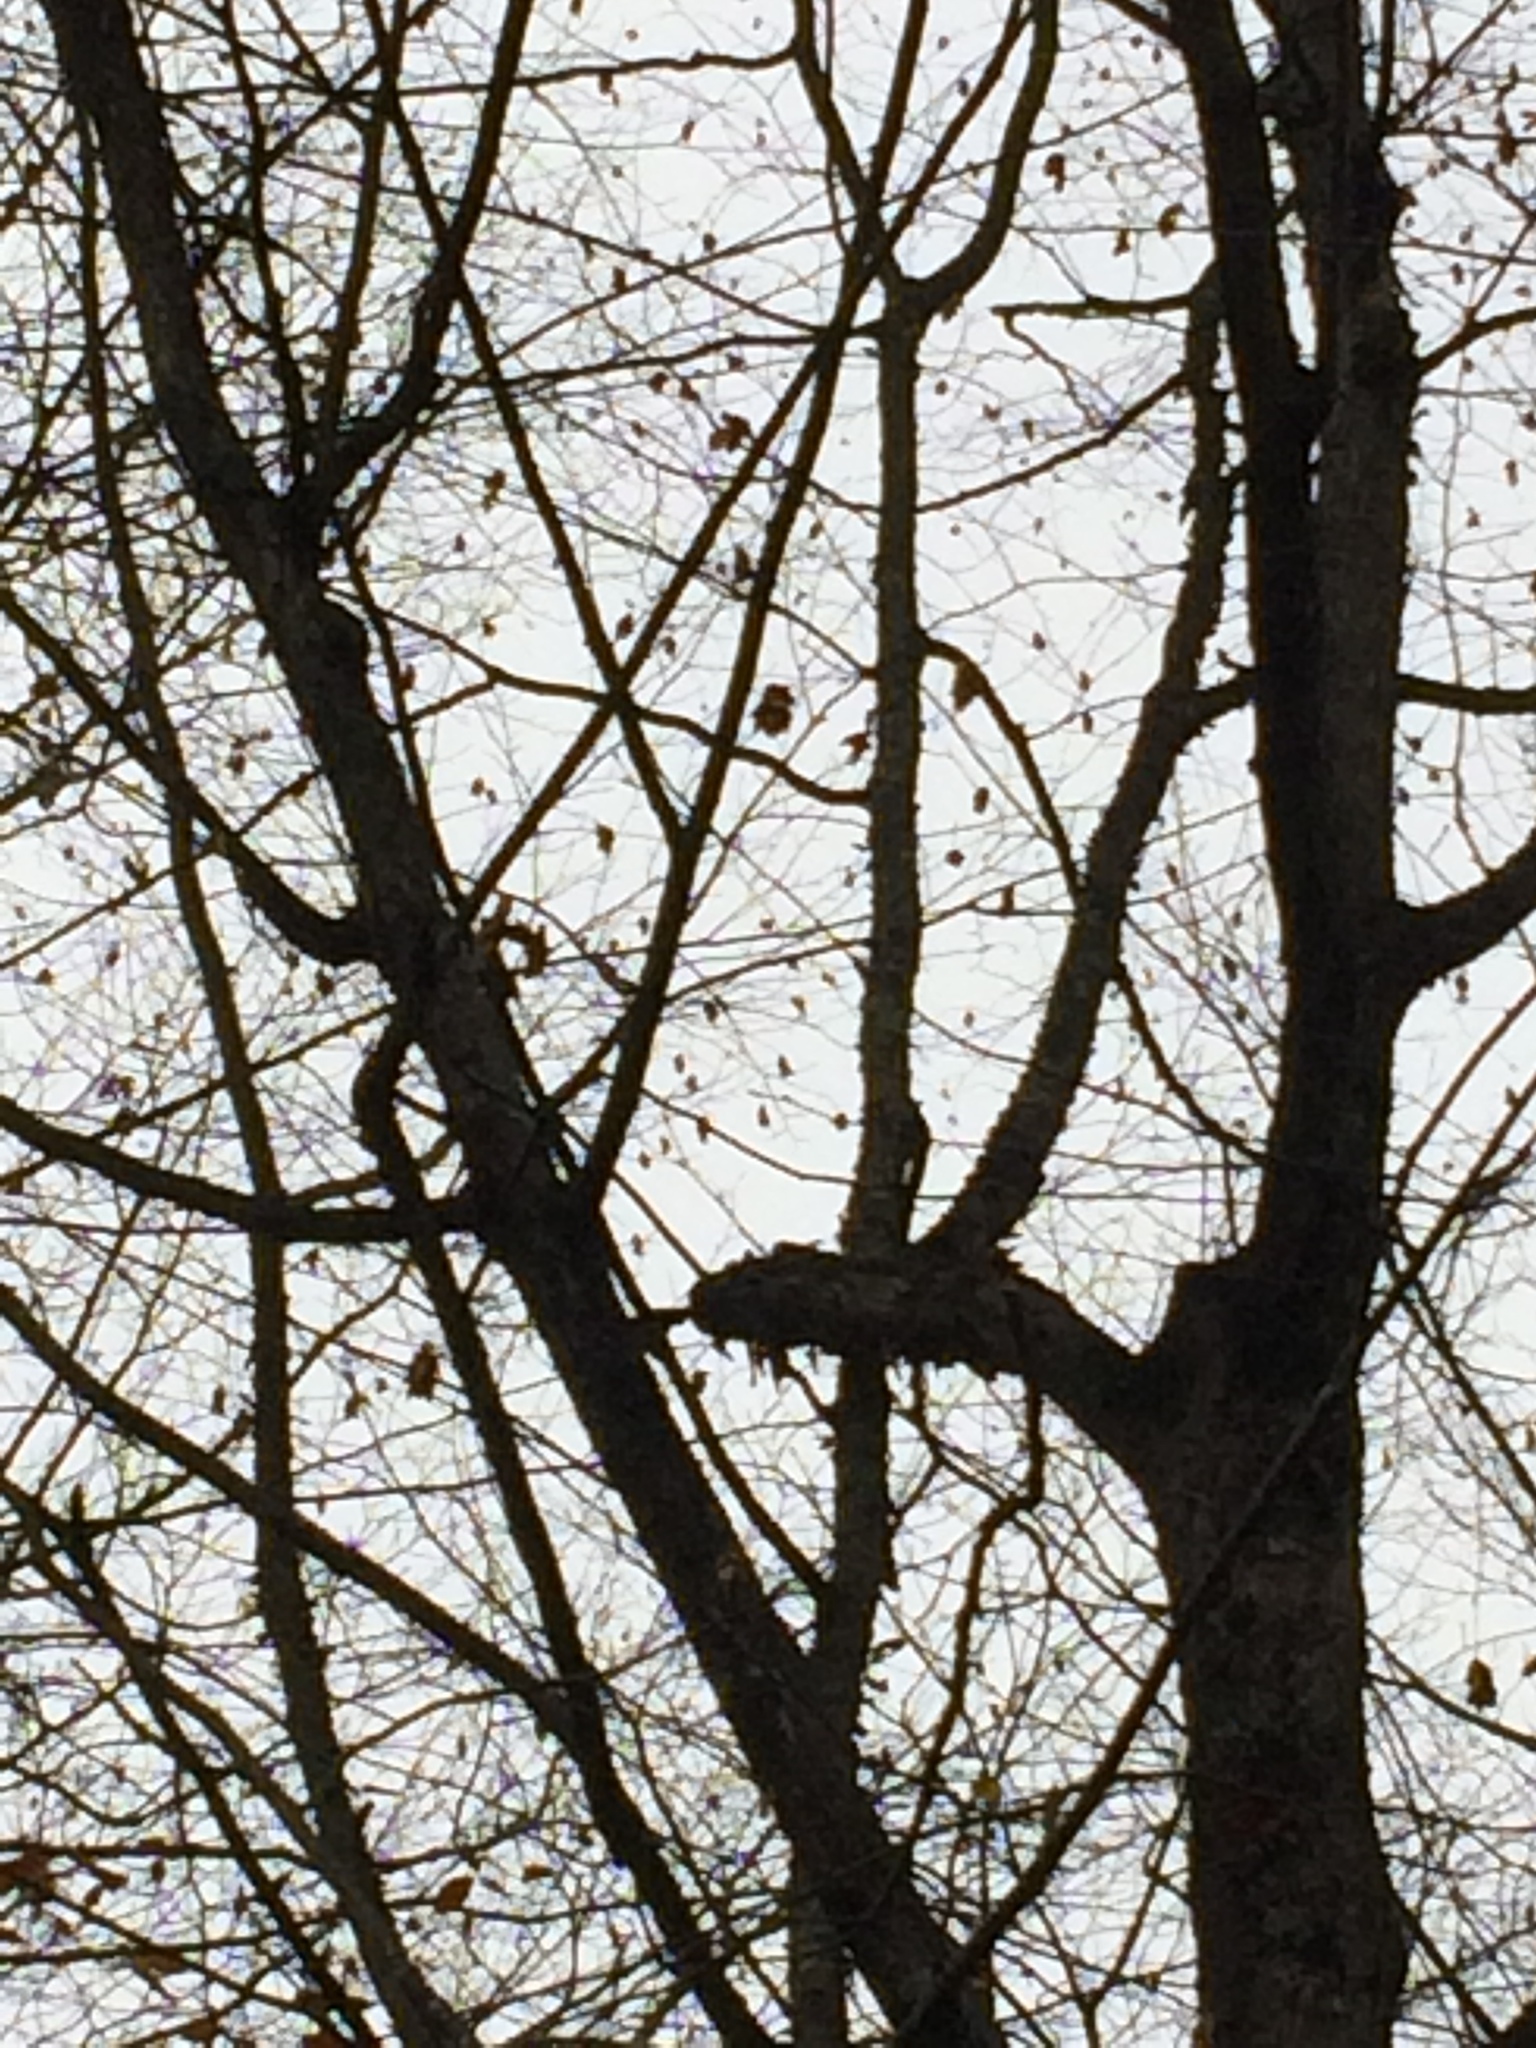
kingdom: Plantae
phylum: Tracheophyta
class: Magnoliopsida
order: Fagales
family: Betulaceae
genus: Ostrya
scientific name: Ostrya virginiana
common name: Ironwood
